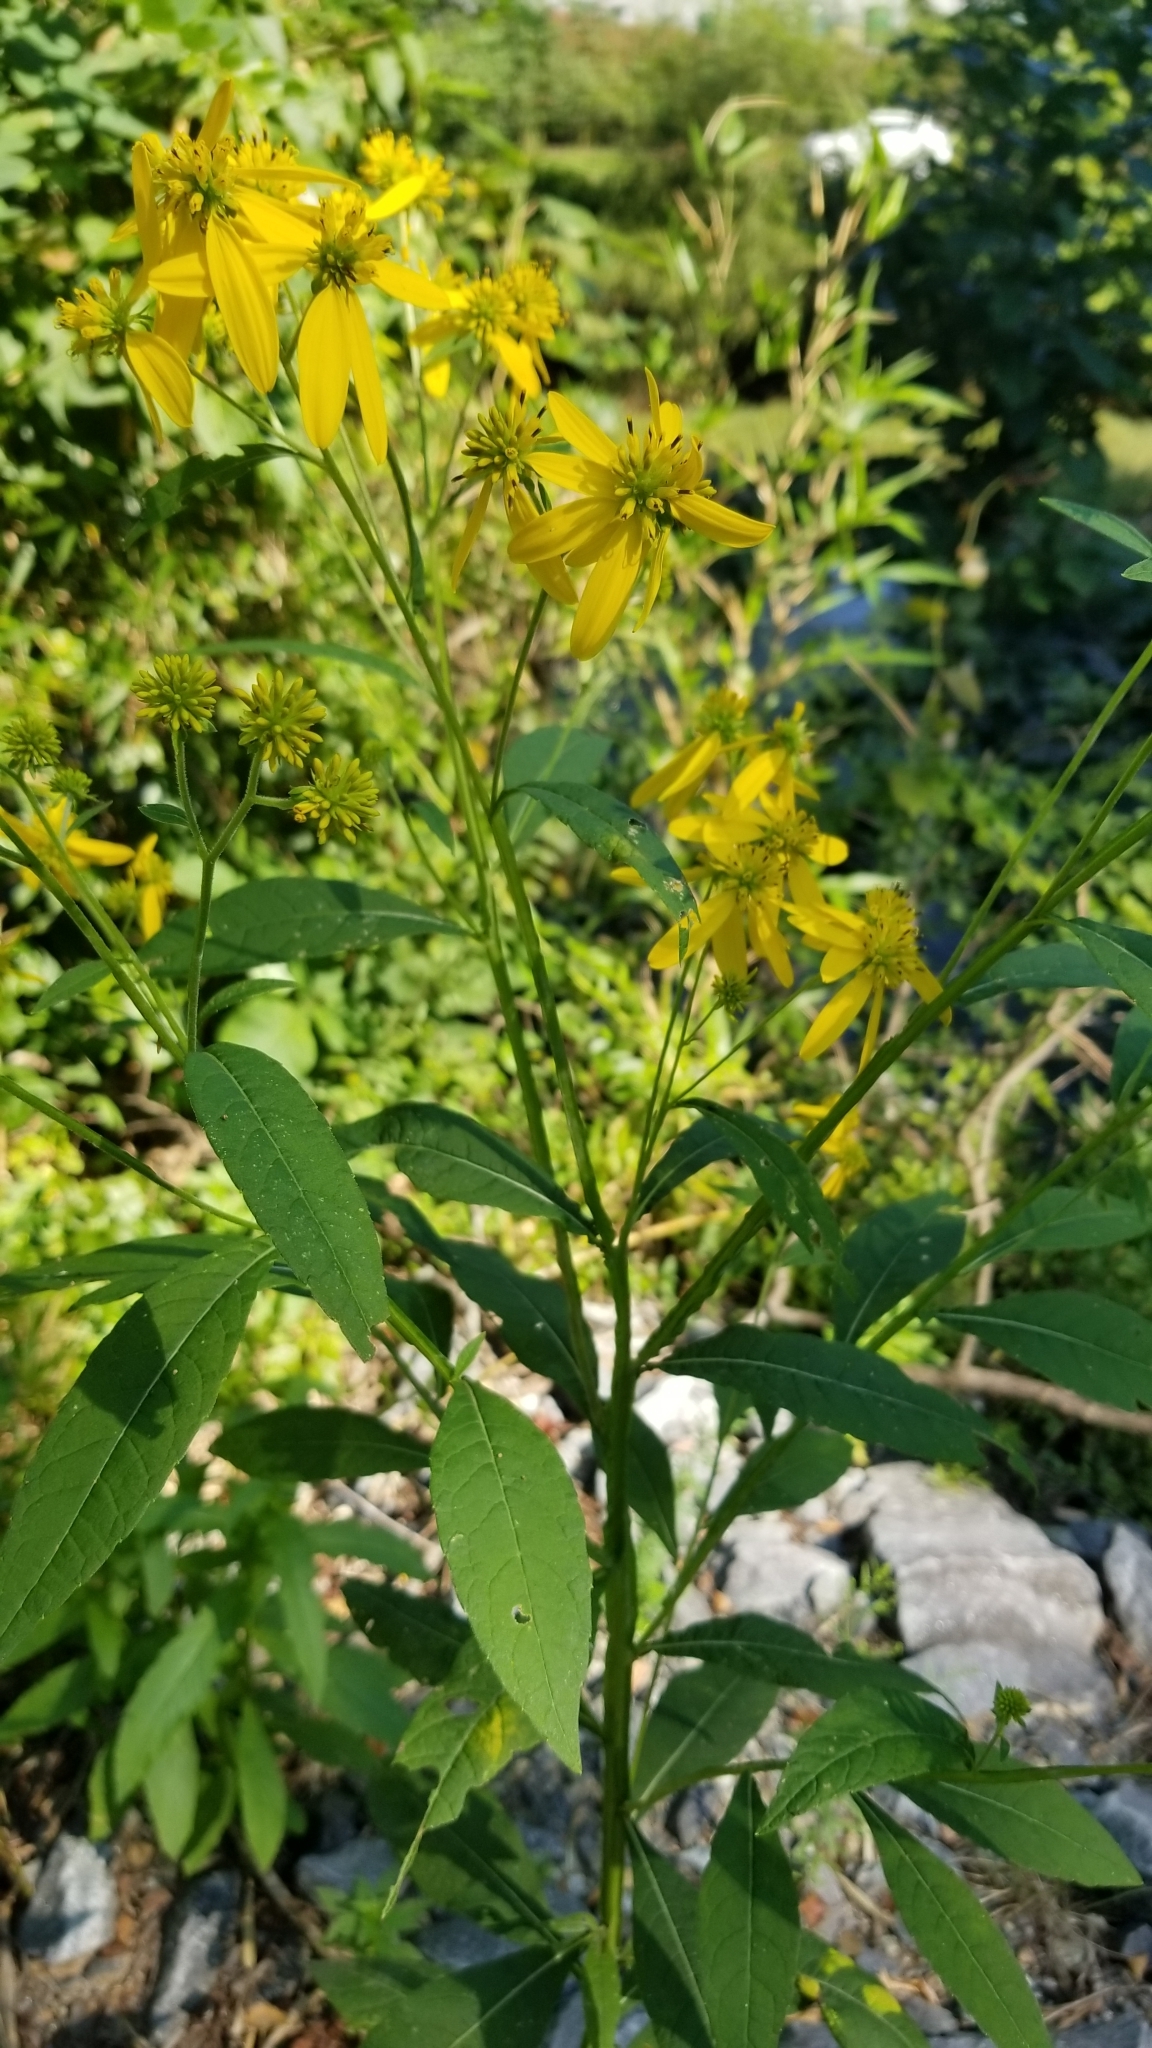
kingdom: Plantae
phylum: Tracheophyta
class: Magnoliopsida
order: Asterales
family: Asteraceae
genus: Verbesina
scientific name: Verbesina alternifolia
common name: Wingstem
